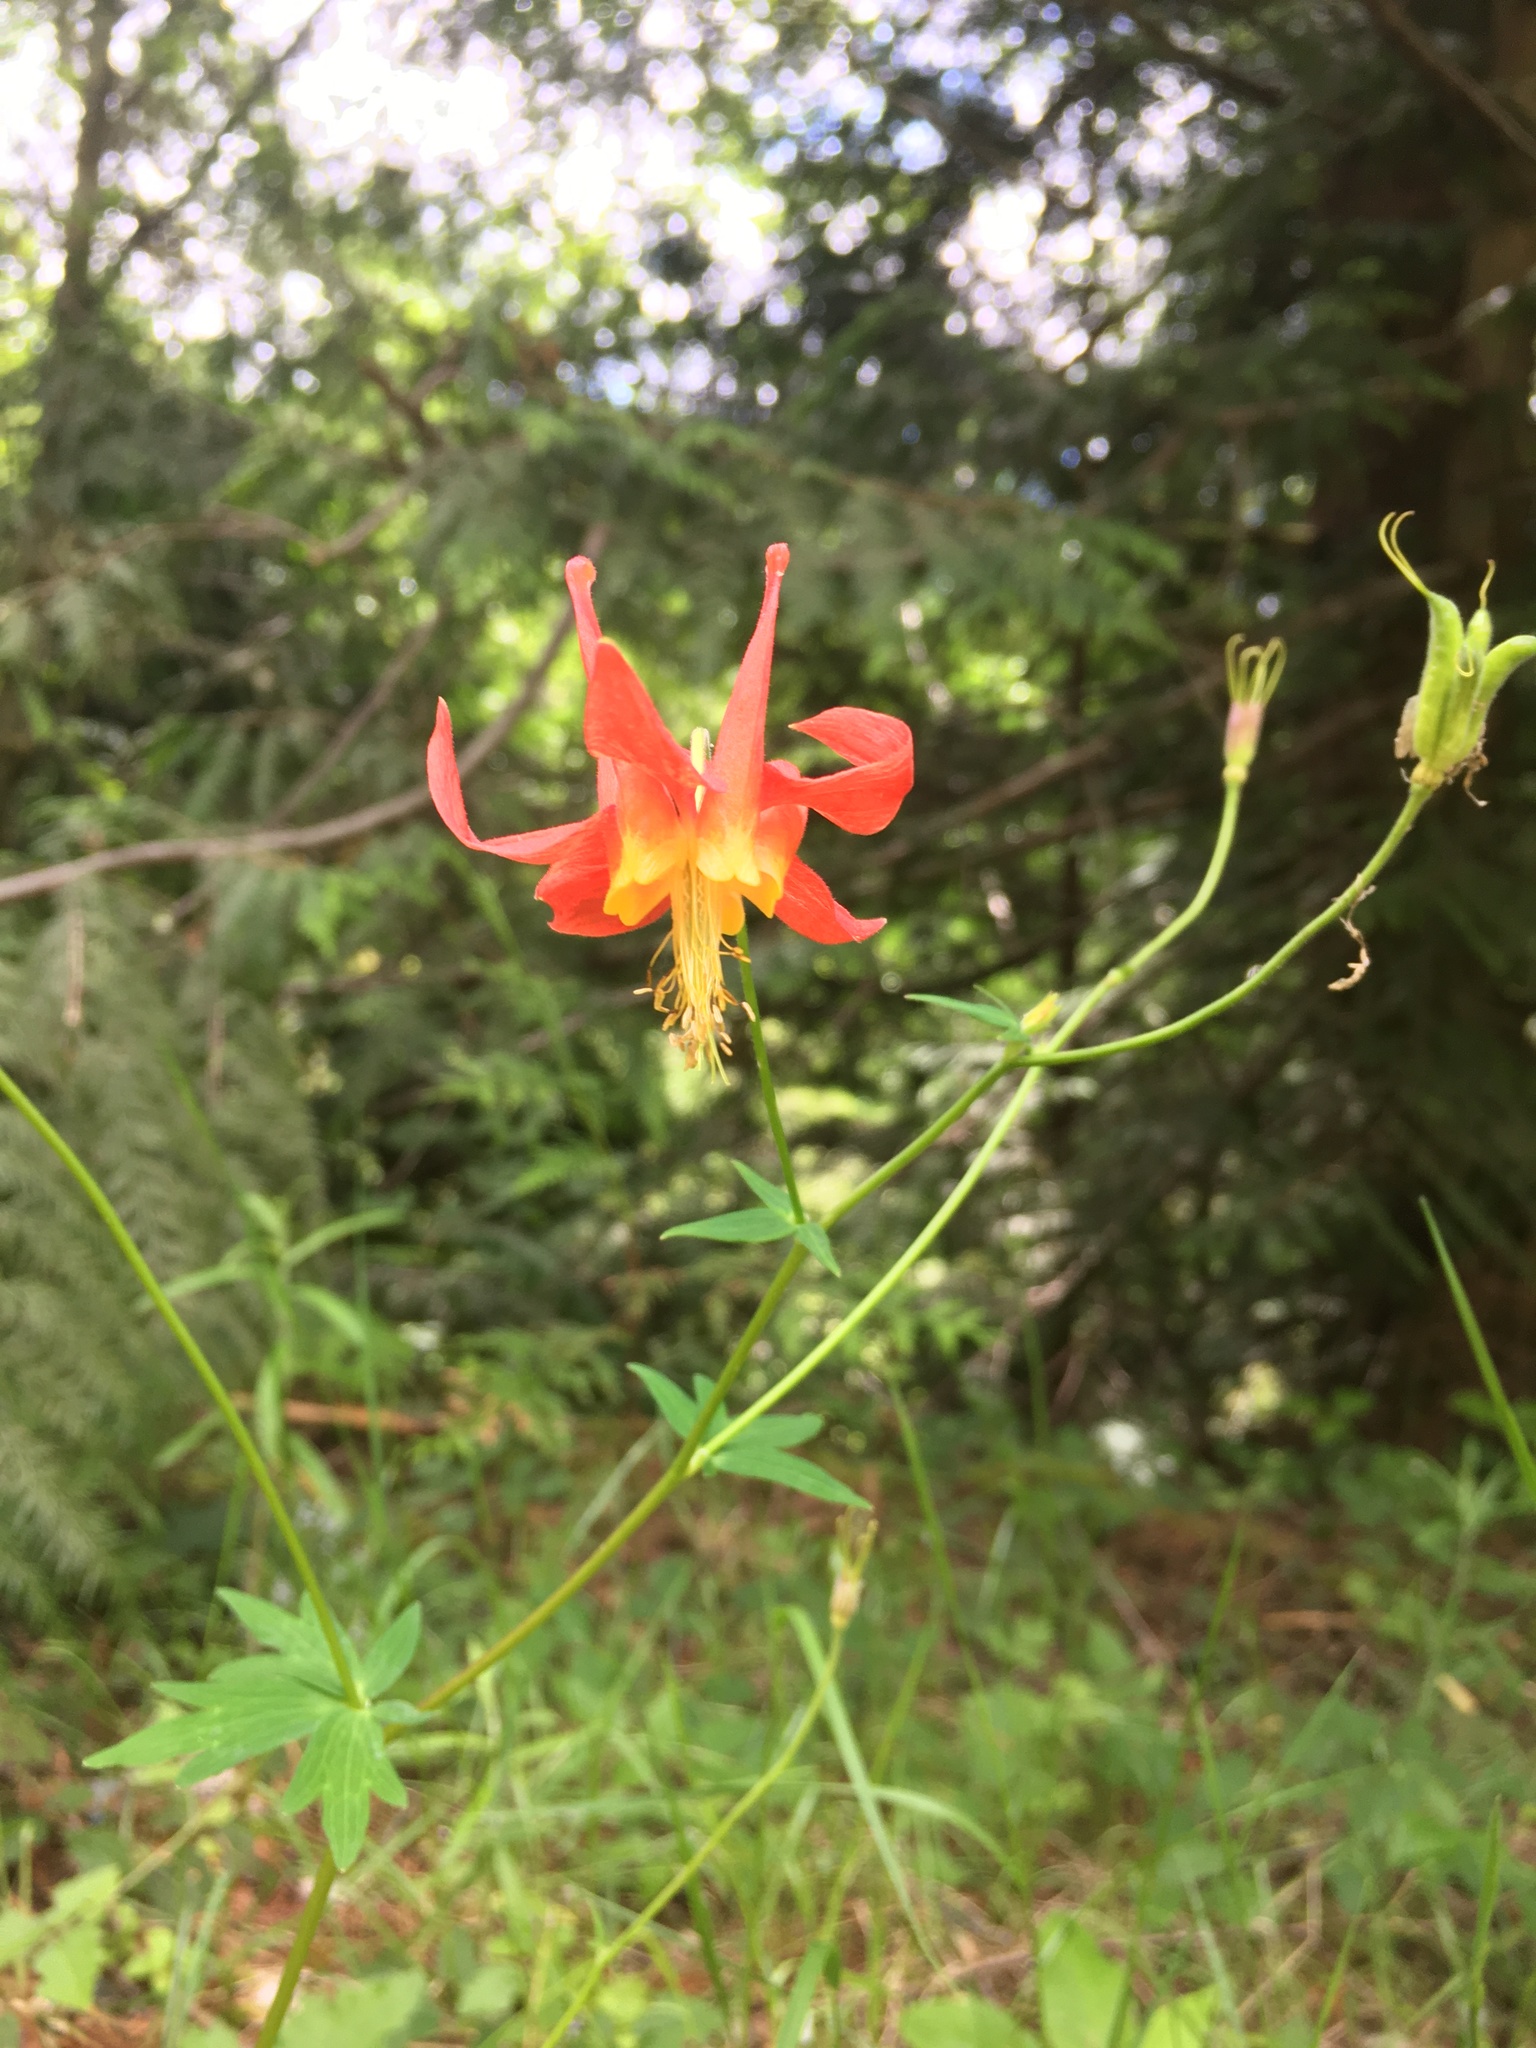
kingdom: Plantae
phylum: Tracheophyta
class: Magnoliopsida
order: Ranunculales
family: Ranunculaceae
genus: Aquilegia
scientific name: Aquilegia formosa
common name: Sitka columbine
